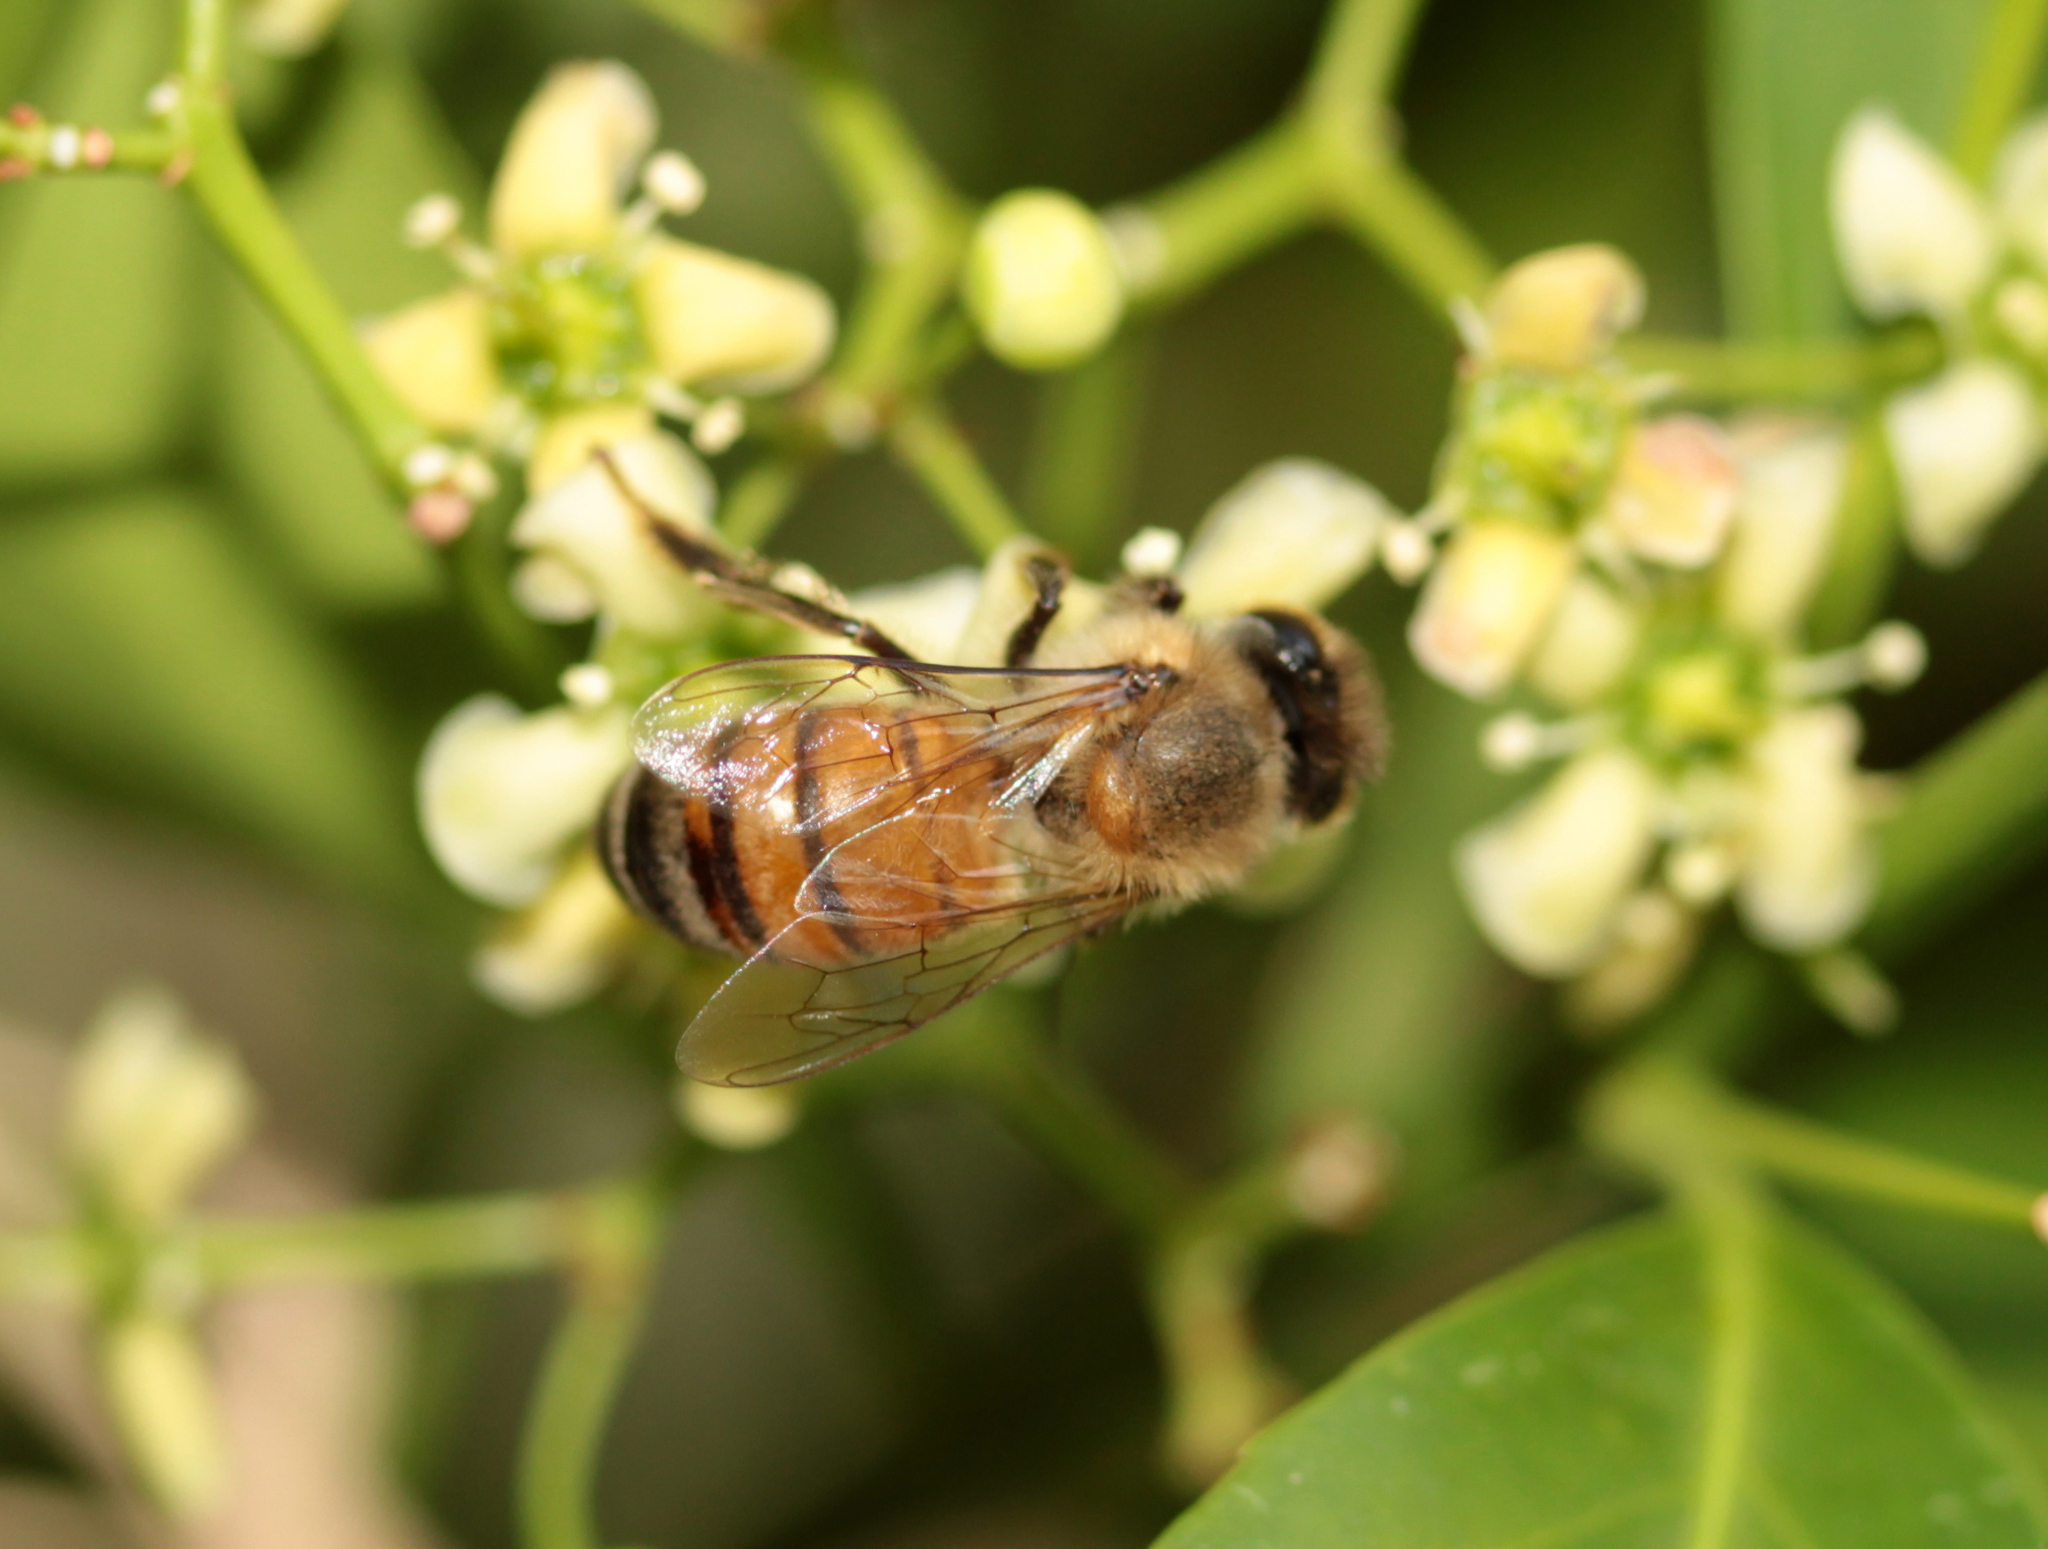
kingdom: Animalia
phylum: Arthropoda
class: Insecta
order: Hymenoptera
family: Apidae
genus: Apis
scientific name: Apis mellifera
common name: Honey bee
